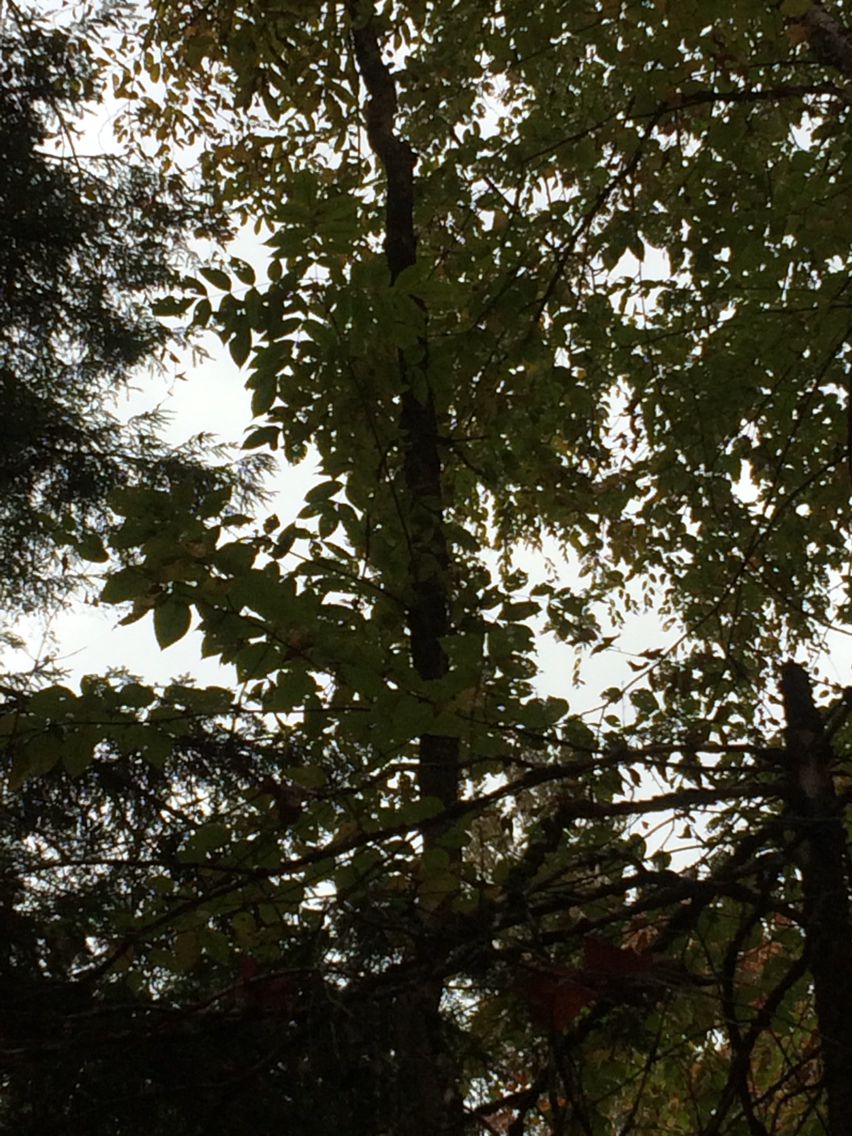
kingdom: Plantae
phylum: Tracheophyta
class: Magnoliopsida
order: Lamiales
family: Oleaceae
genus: Fraxinus
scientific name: Fraxinus nigra
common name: Black ash
